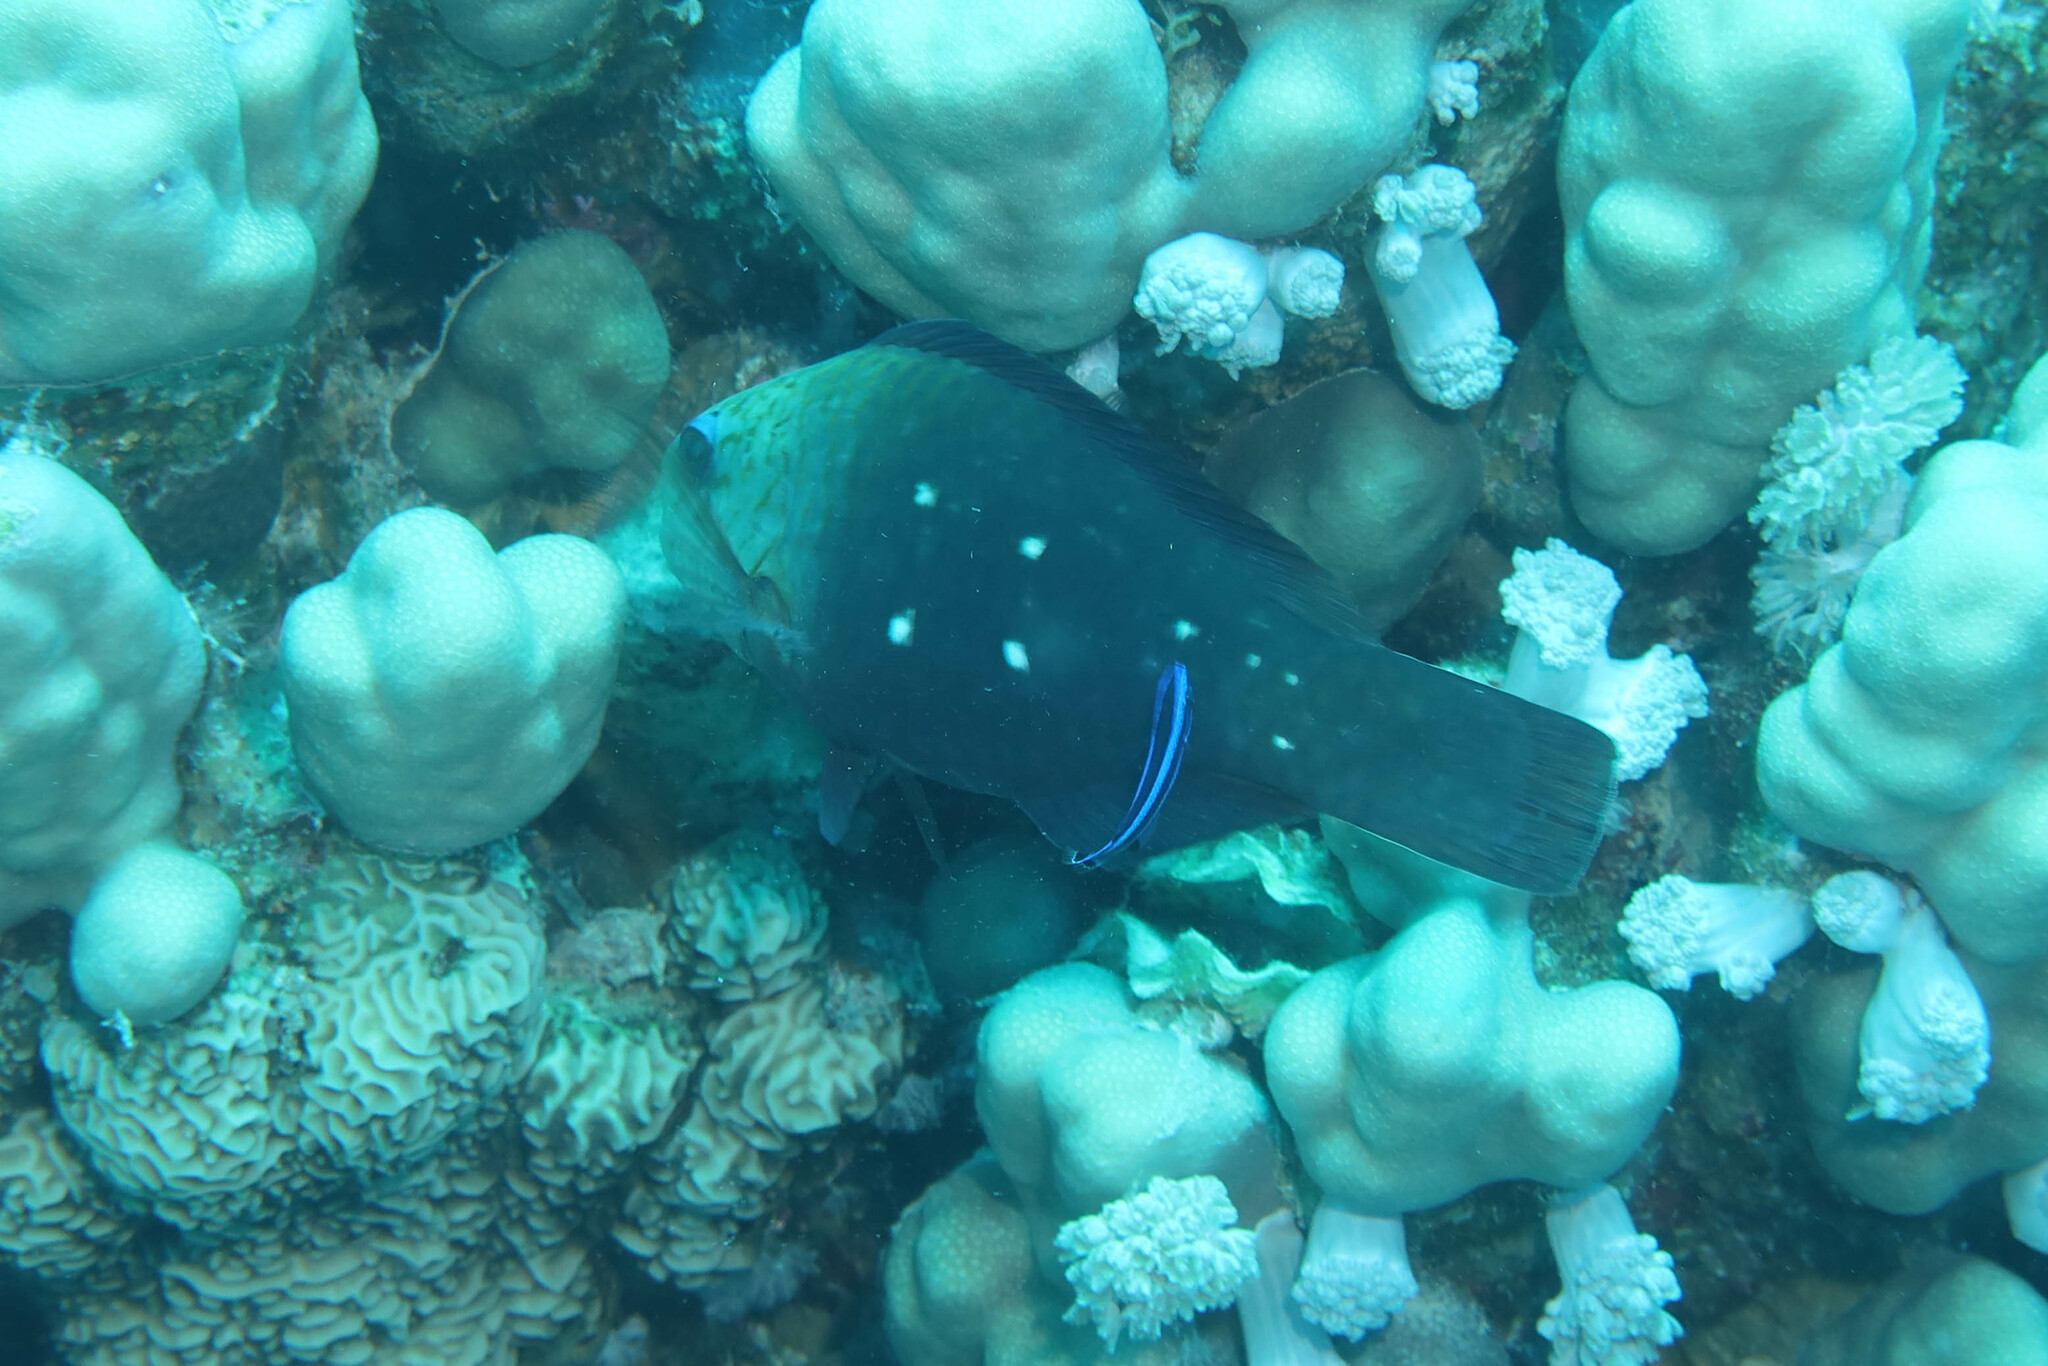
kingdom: Animalia
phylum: Chordata
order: Perciformes
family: Scaridae
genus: Chlorurus
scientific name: Chlorurus sordidus
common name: Bullethead parrotfish
